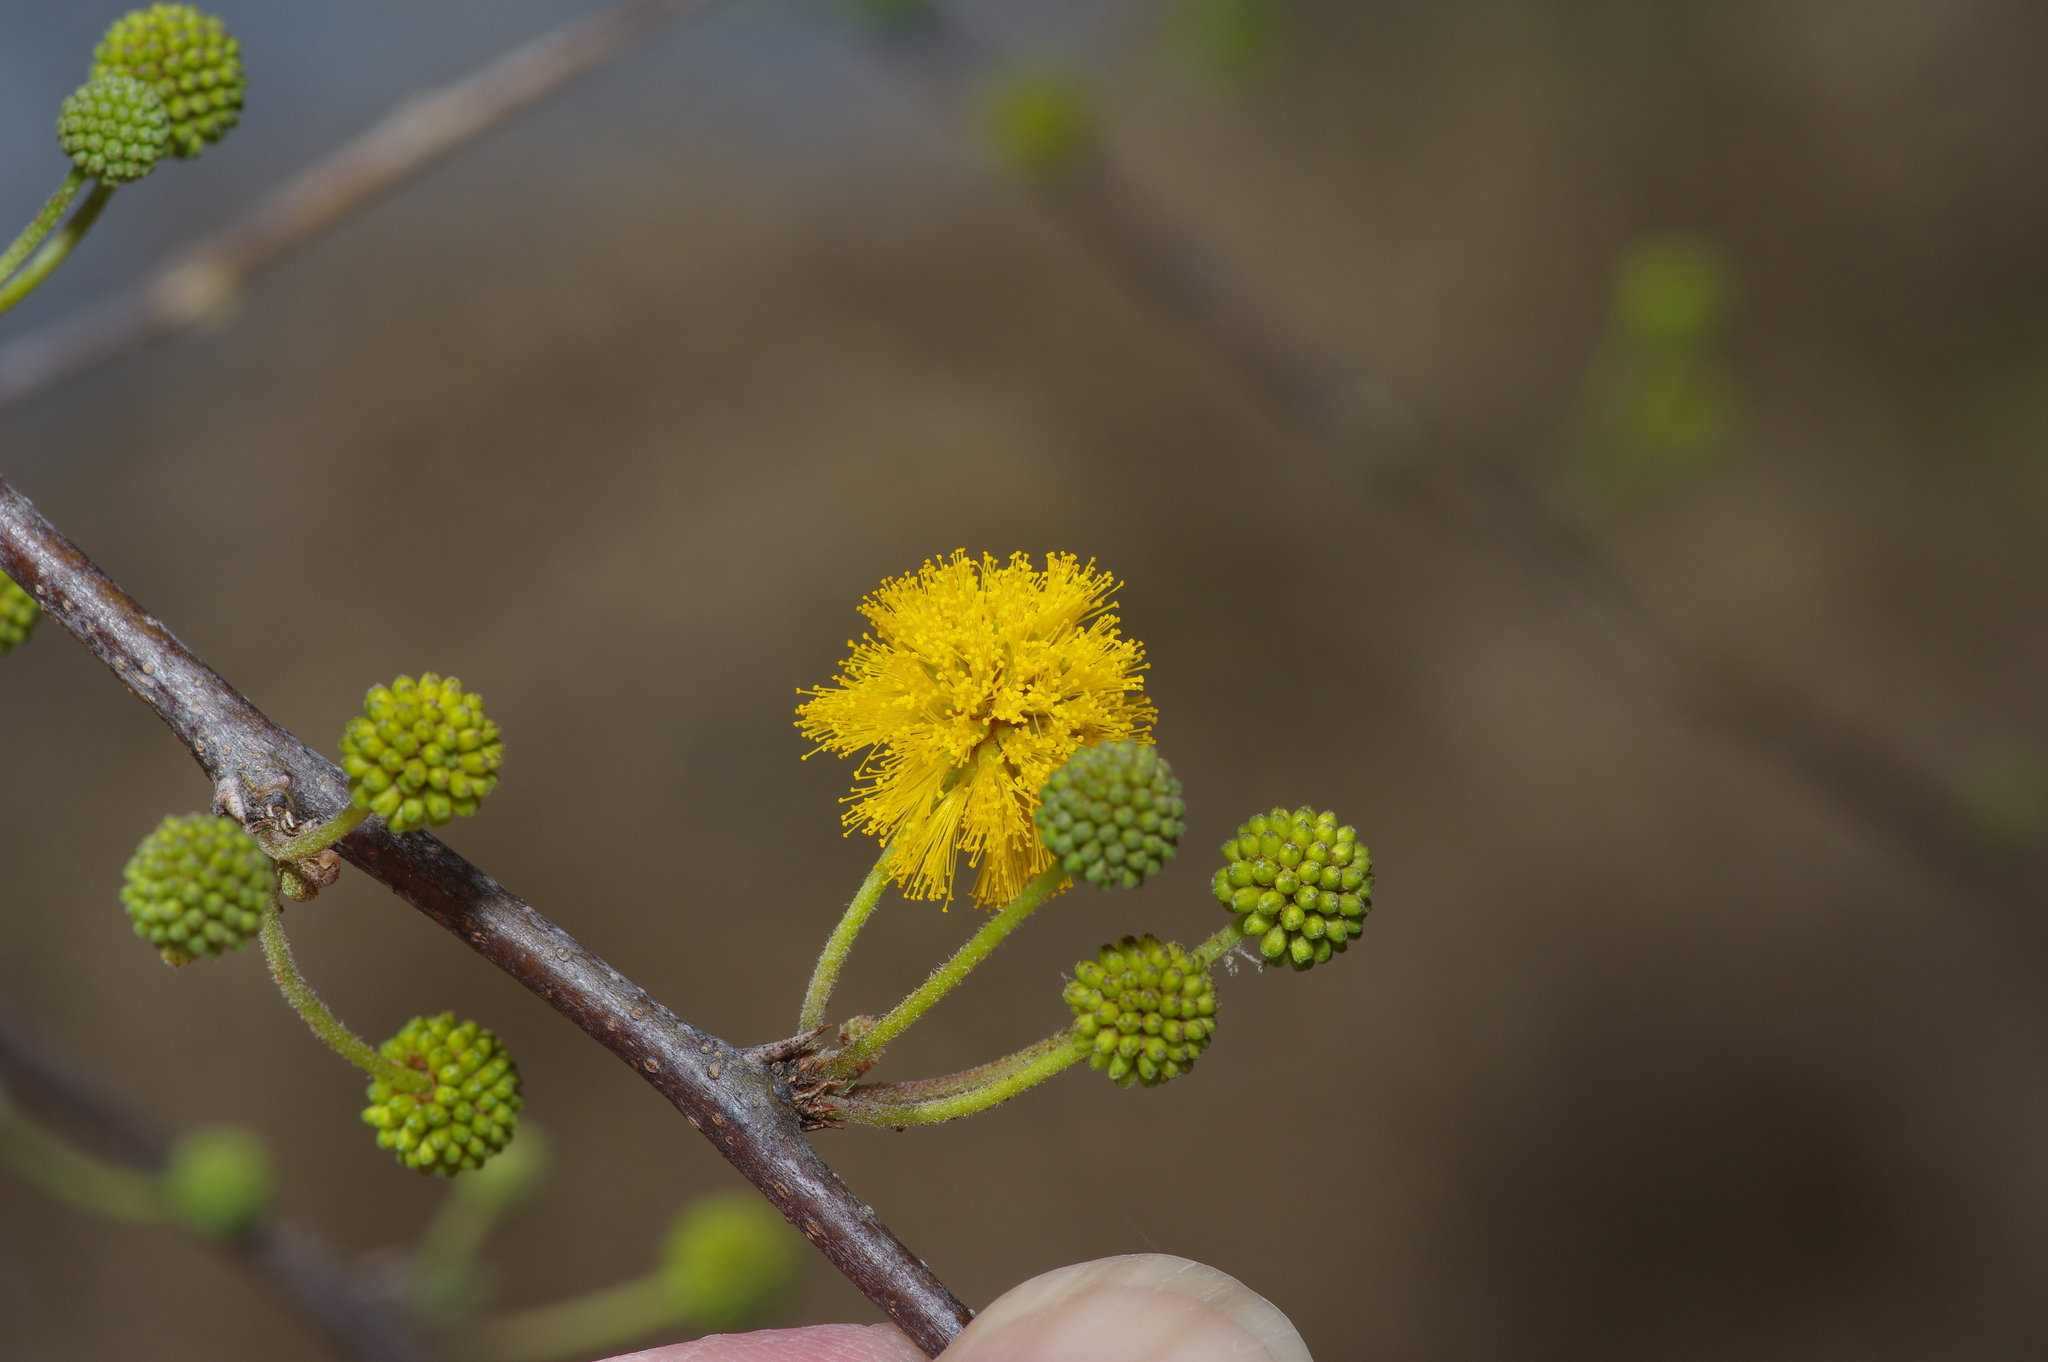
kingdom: Plantae
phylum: Tracheophyta
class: Magnoliopsida
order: Fabales
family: Fabaceae
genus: Vachellia
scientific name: Vachellia farnesiana
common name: Sweet acacia
